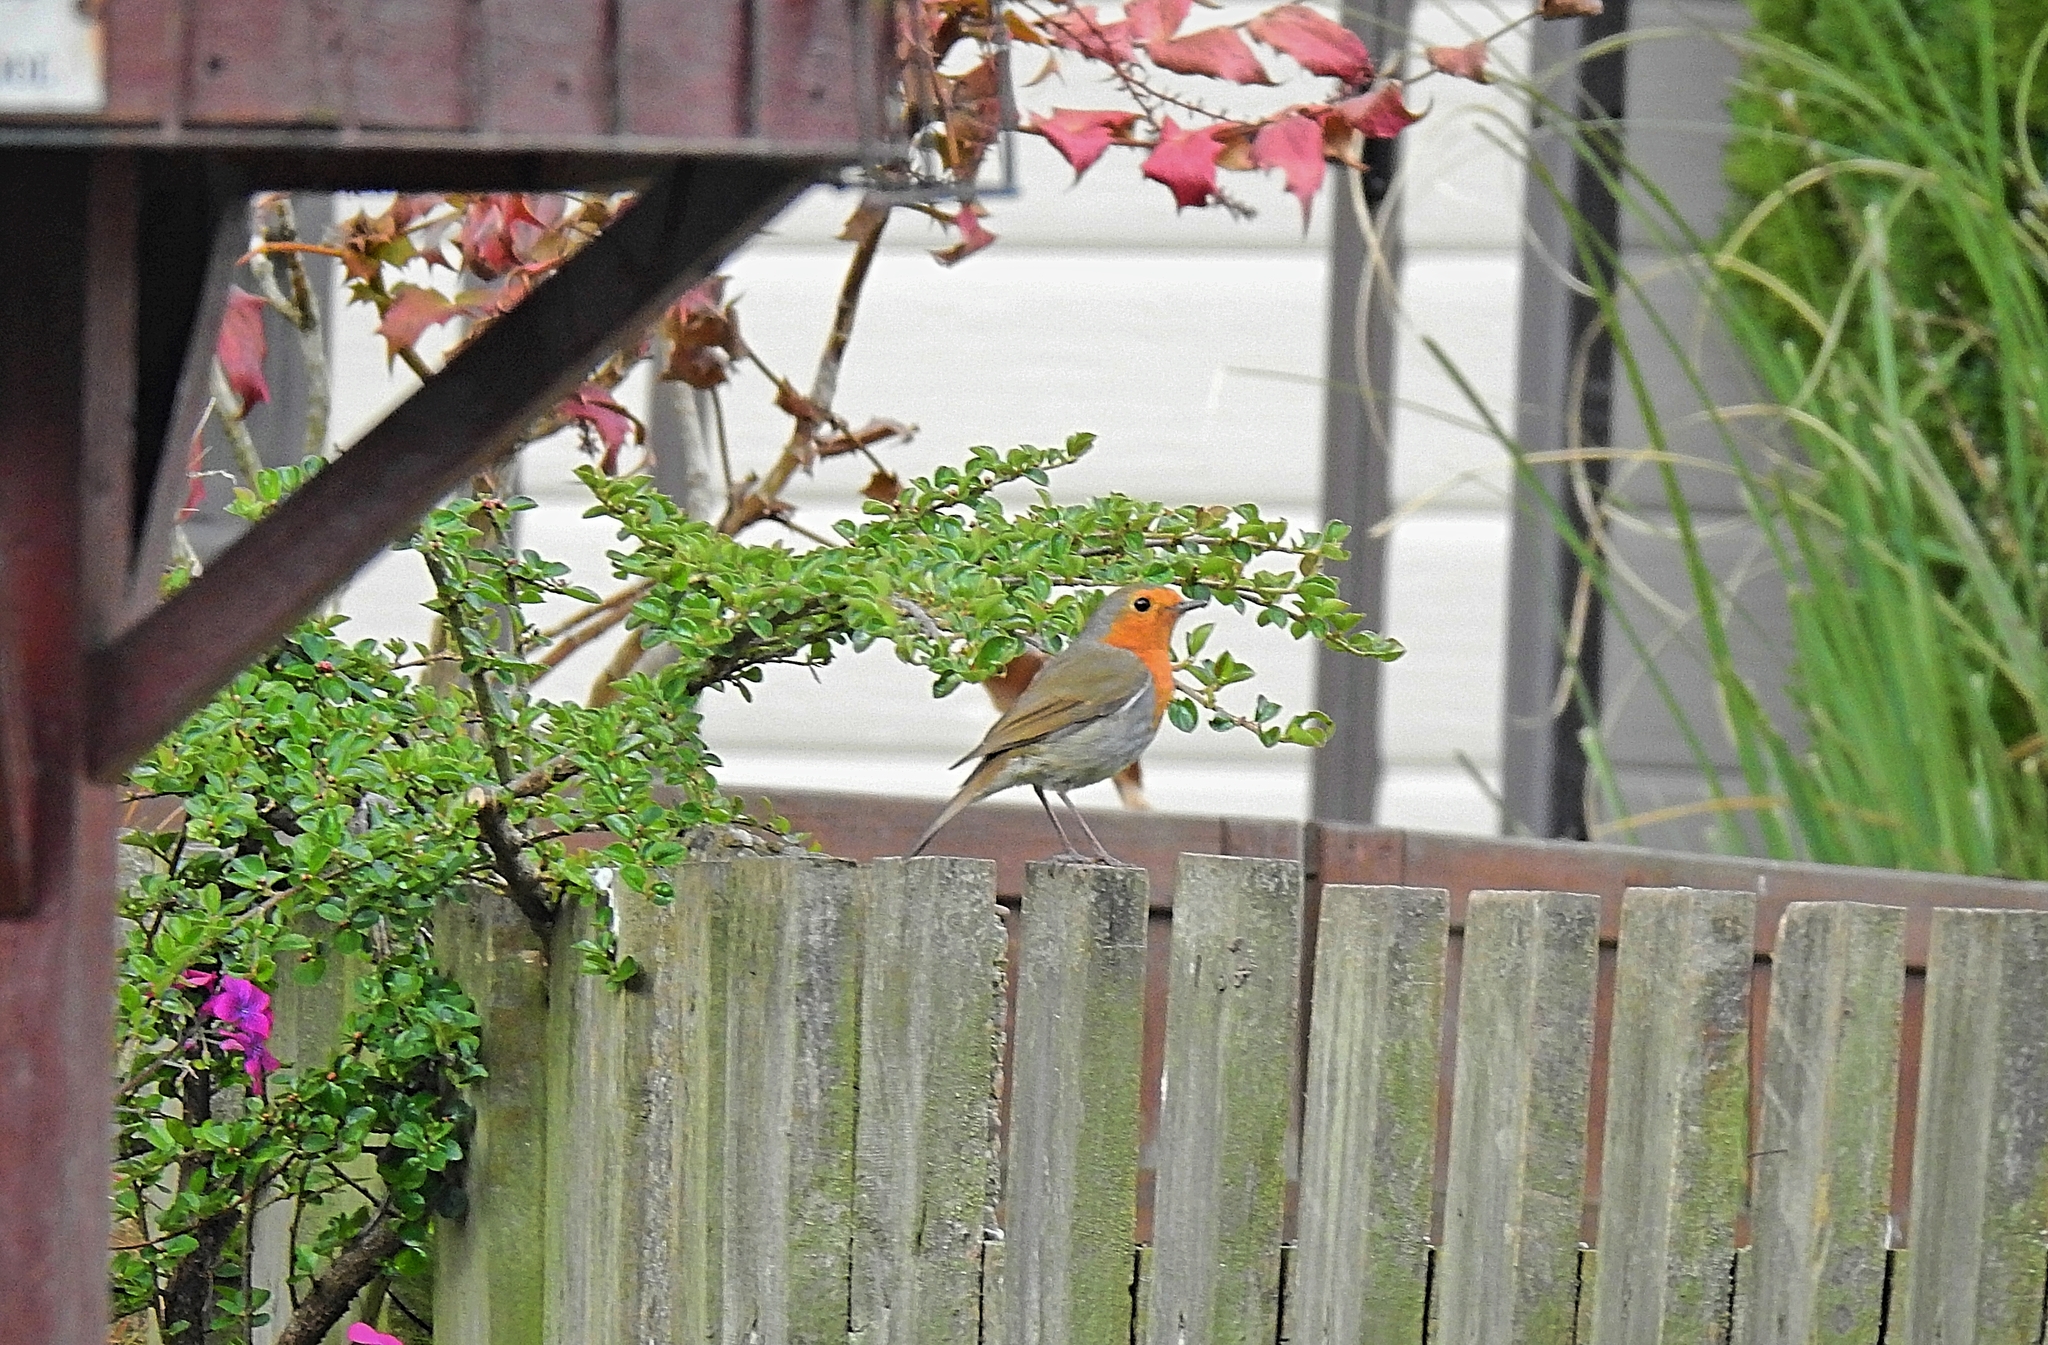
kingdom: Animalia
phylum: Chordata
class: Aves
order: Passeriformes
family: Muscicapidae
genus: Erithacus
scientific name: Erithacus rubecula
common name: European robin
